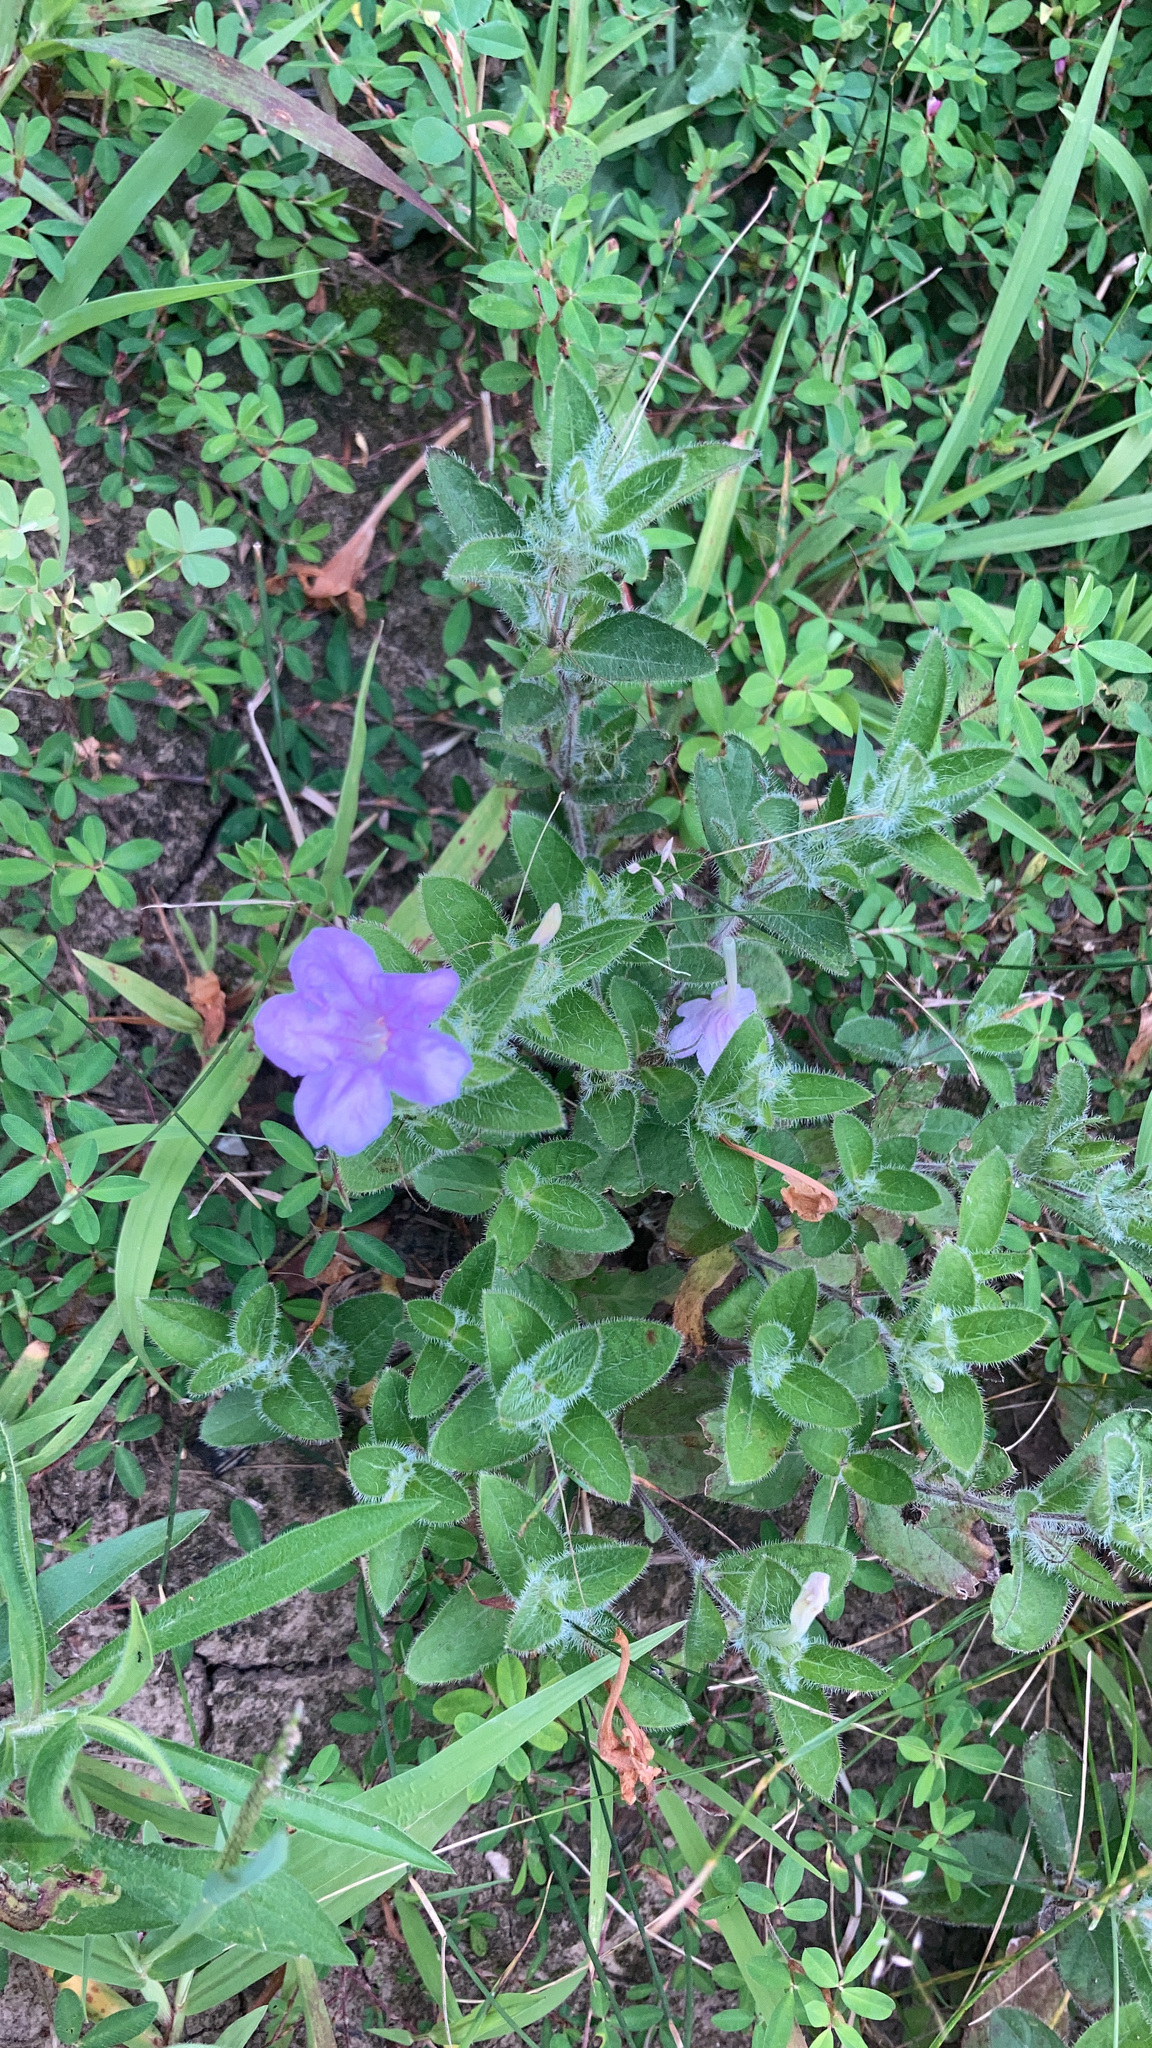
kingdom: Plantae
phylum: Tracheophyta
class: Magnoliopsida
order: Lamiales
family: Acanthaceae
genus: Ruellia
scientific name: Ruellia humilis
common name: Fringe-leaf ruellia
